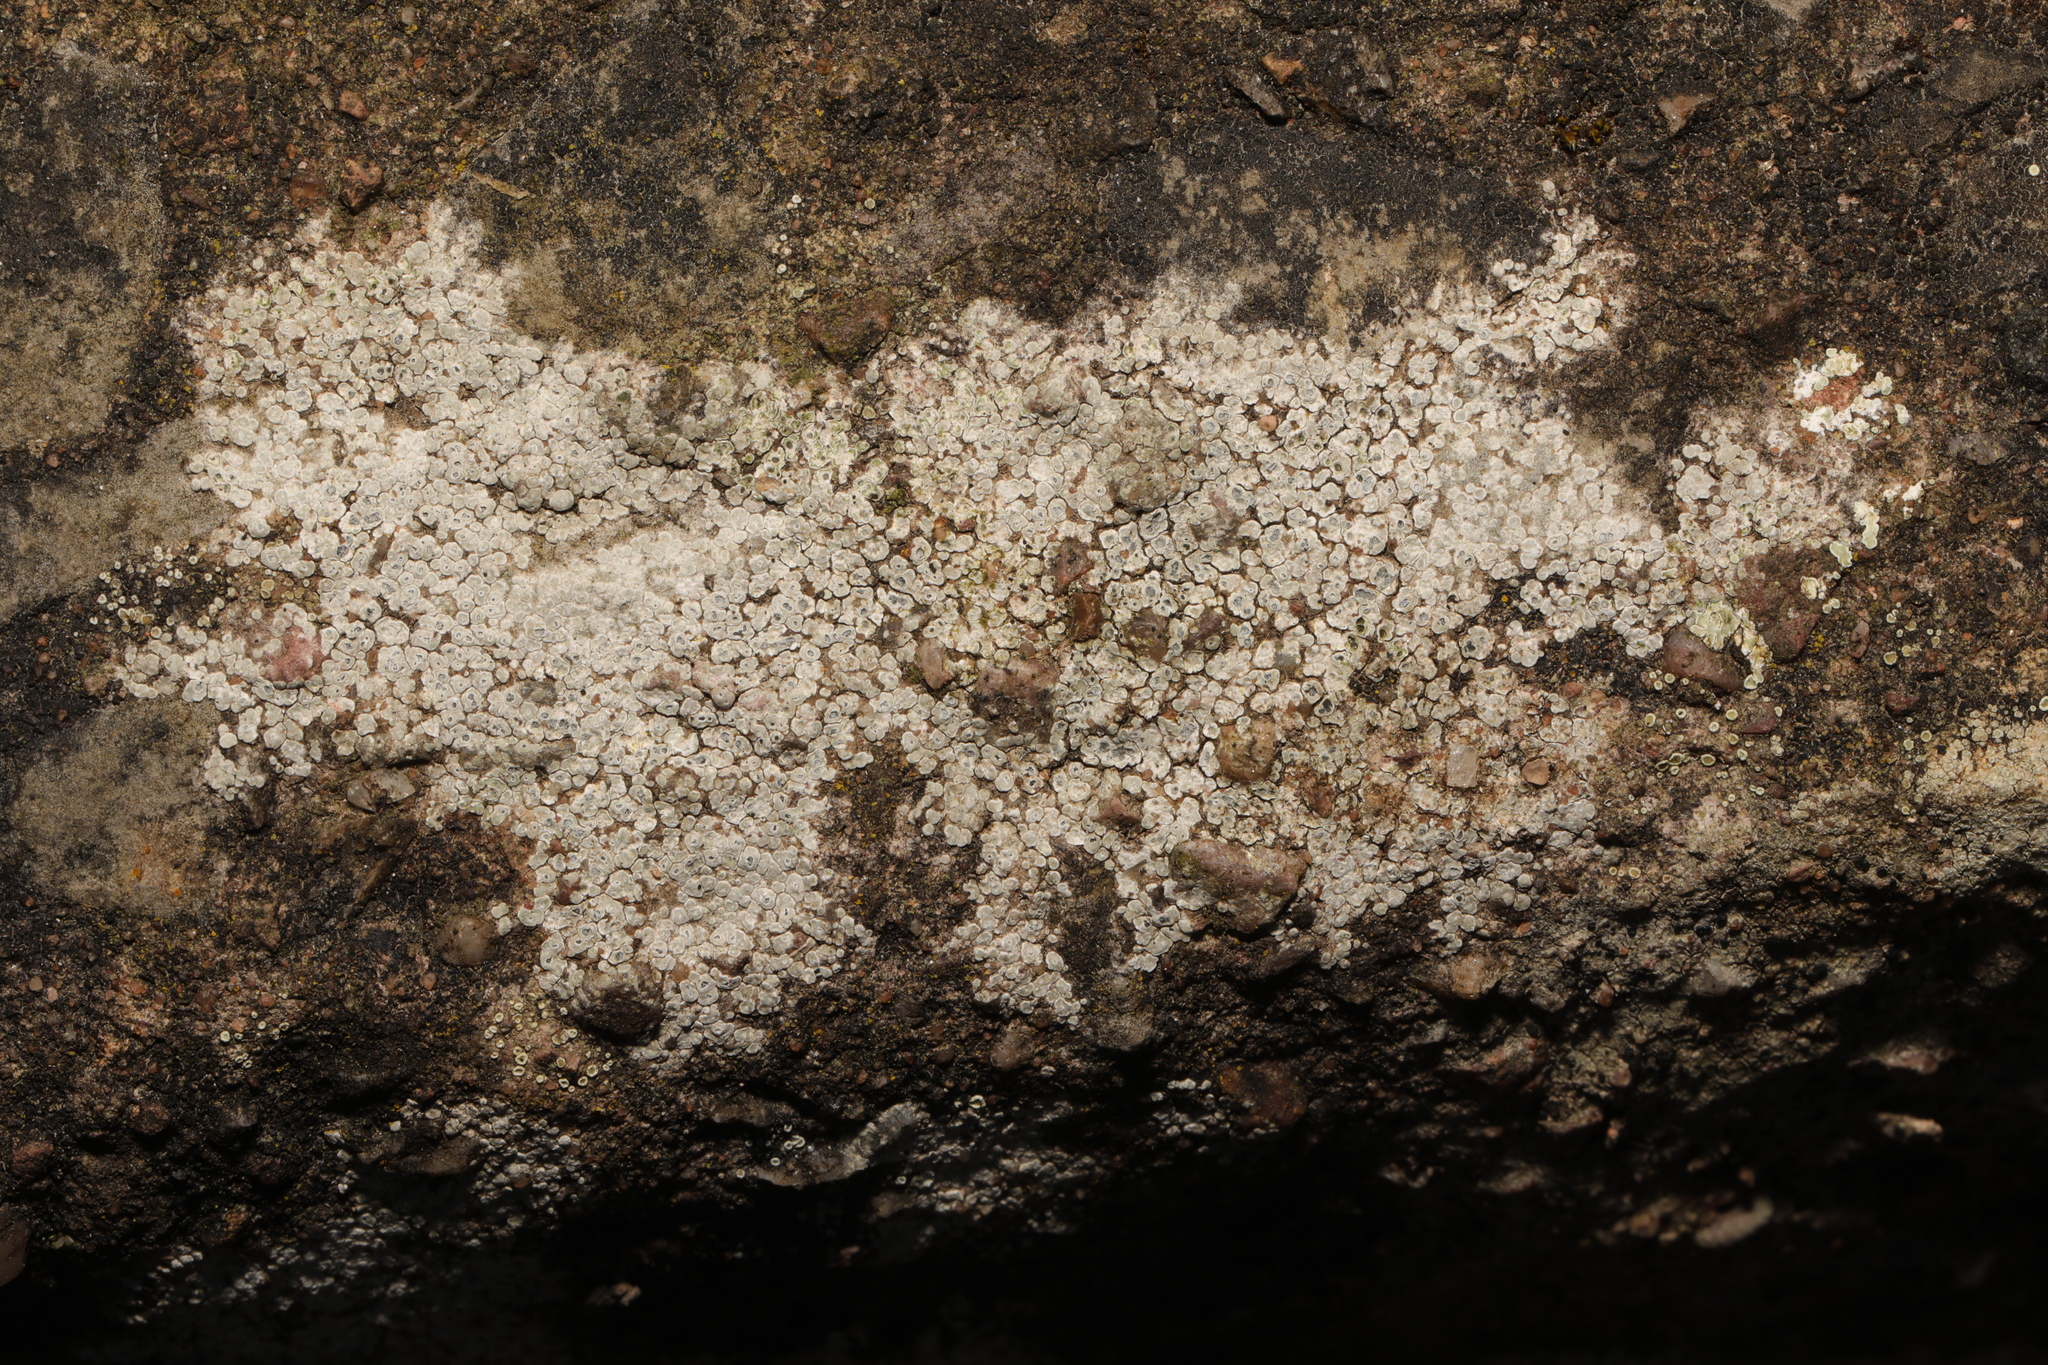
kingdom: Fungi
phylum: Ascomycota
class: Lecanoromycetes
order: Pertusariales
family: Megasporaceae
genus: Circinaria
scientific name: Circinaria contorta
